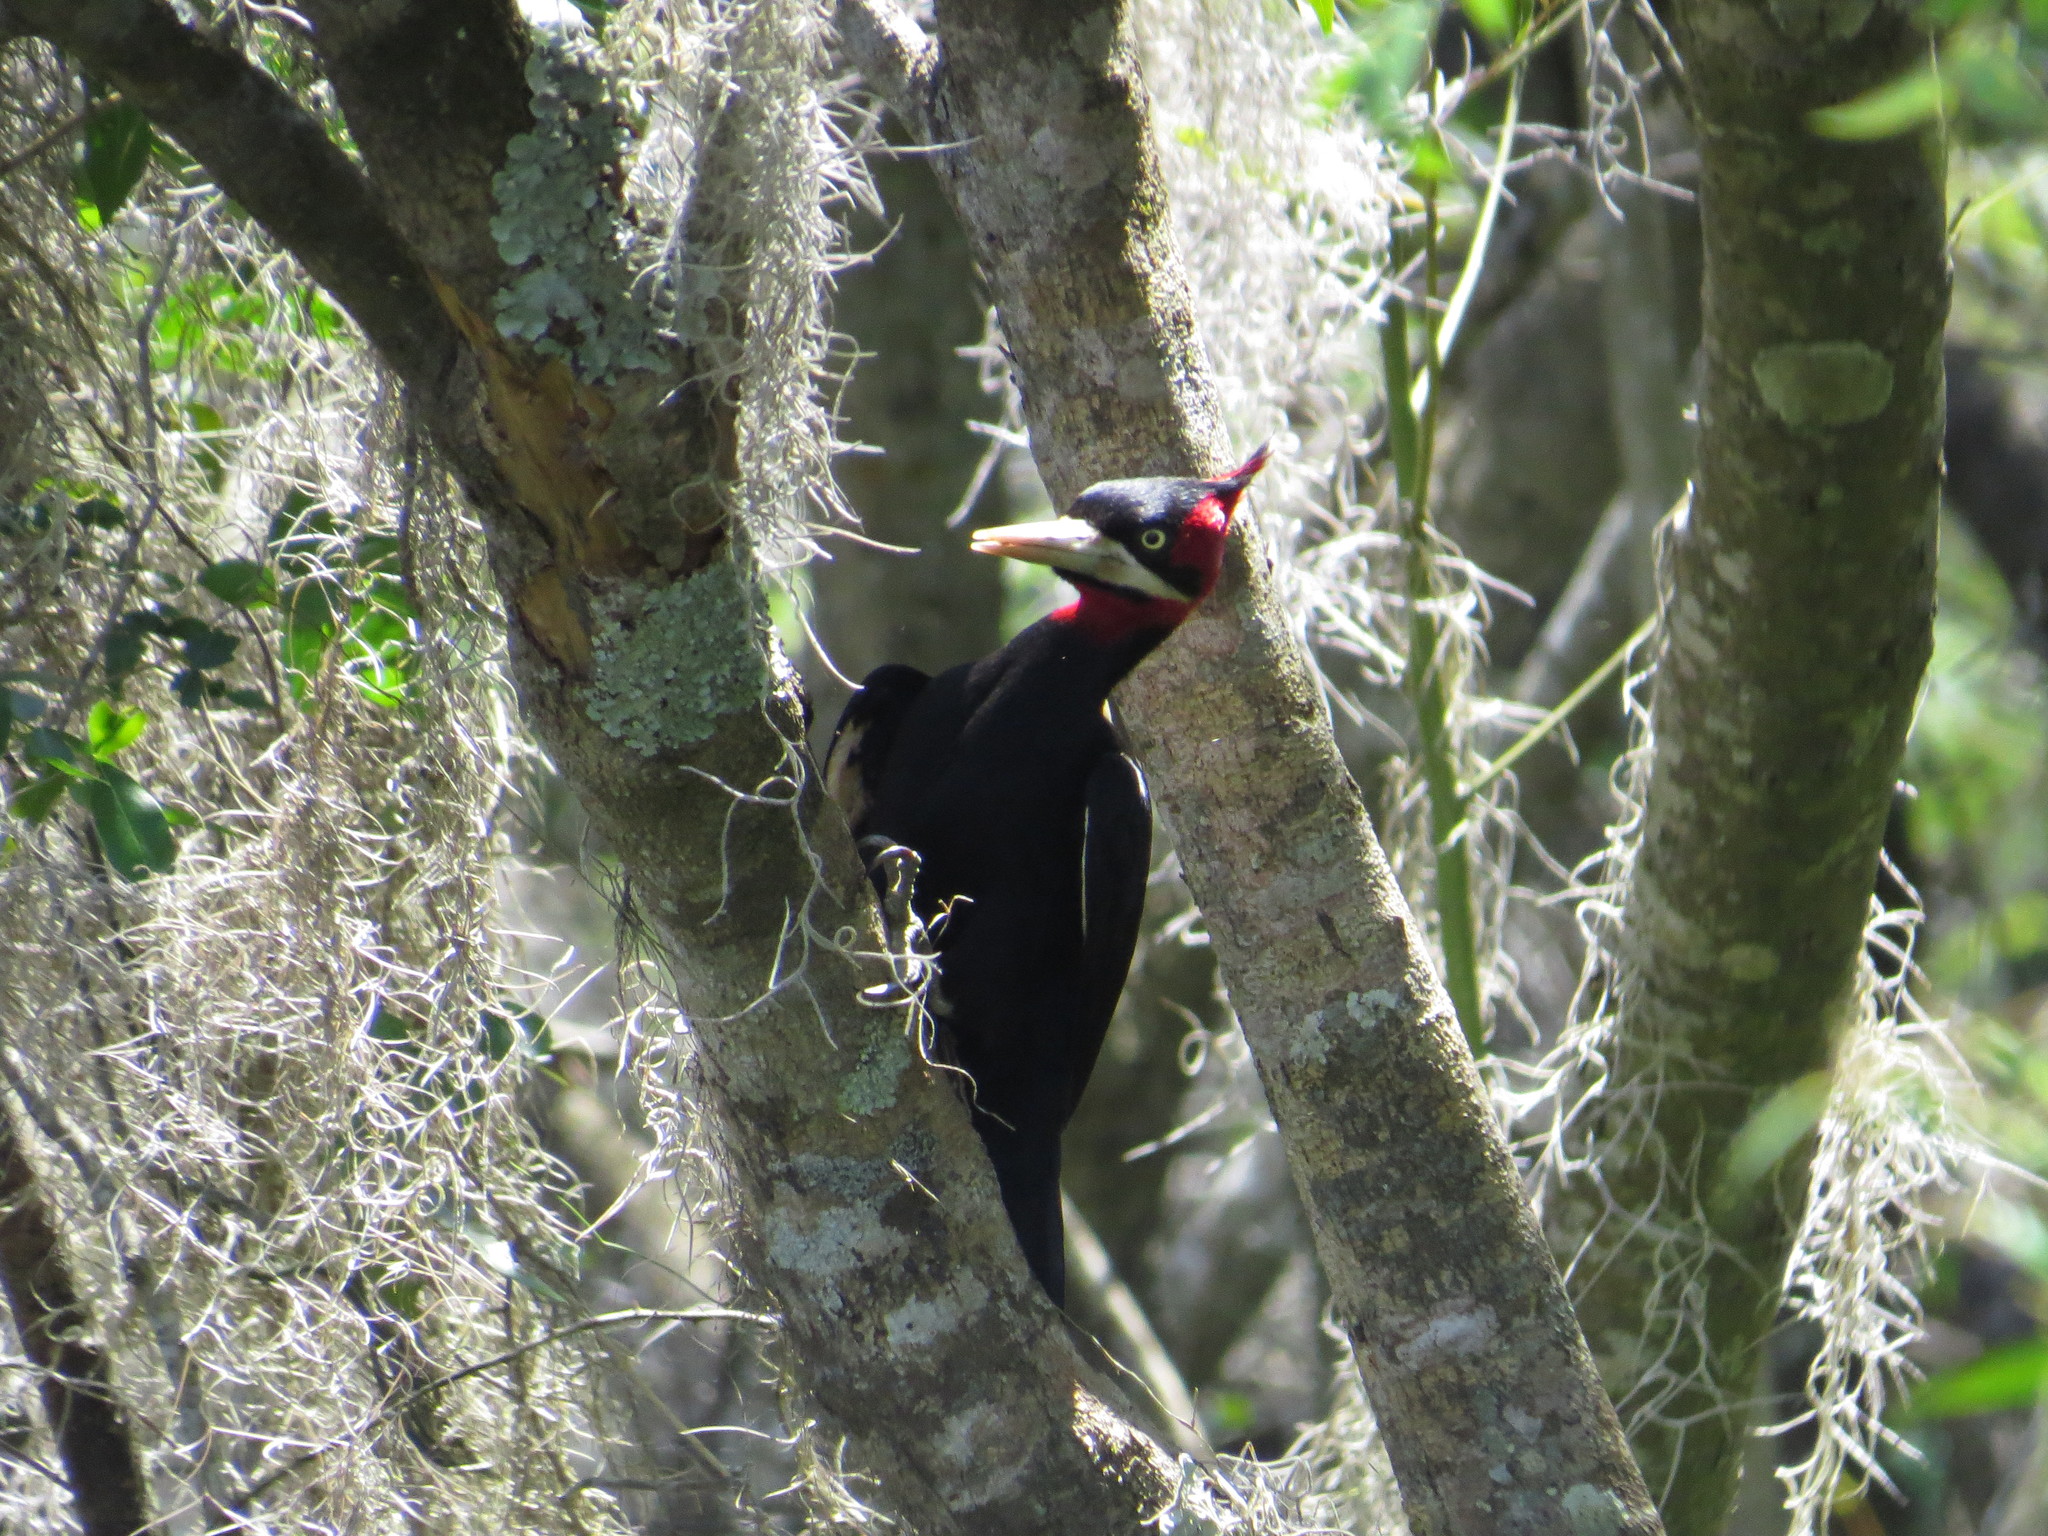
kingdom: Animalia
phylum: Chordata
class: Aves
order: Piciformes
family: Picidae
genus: Campephilus
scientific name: Campephilus leucopogon
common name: Cream-backed woodpecker
